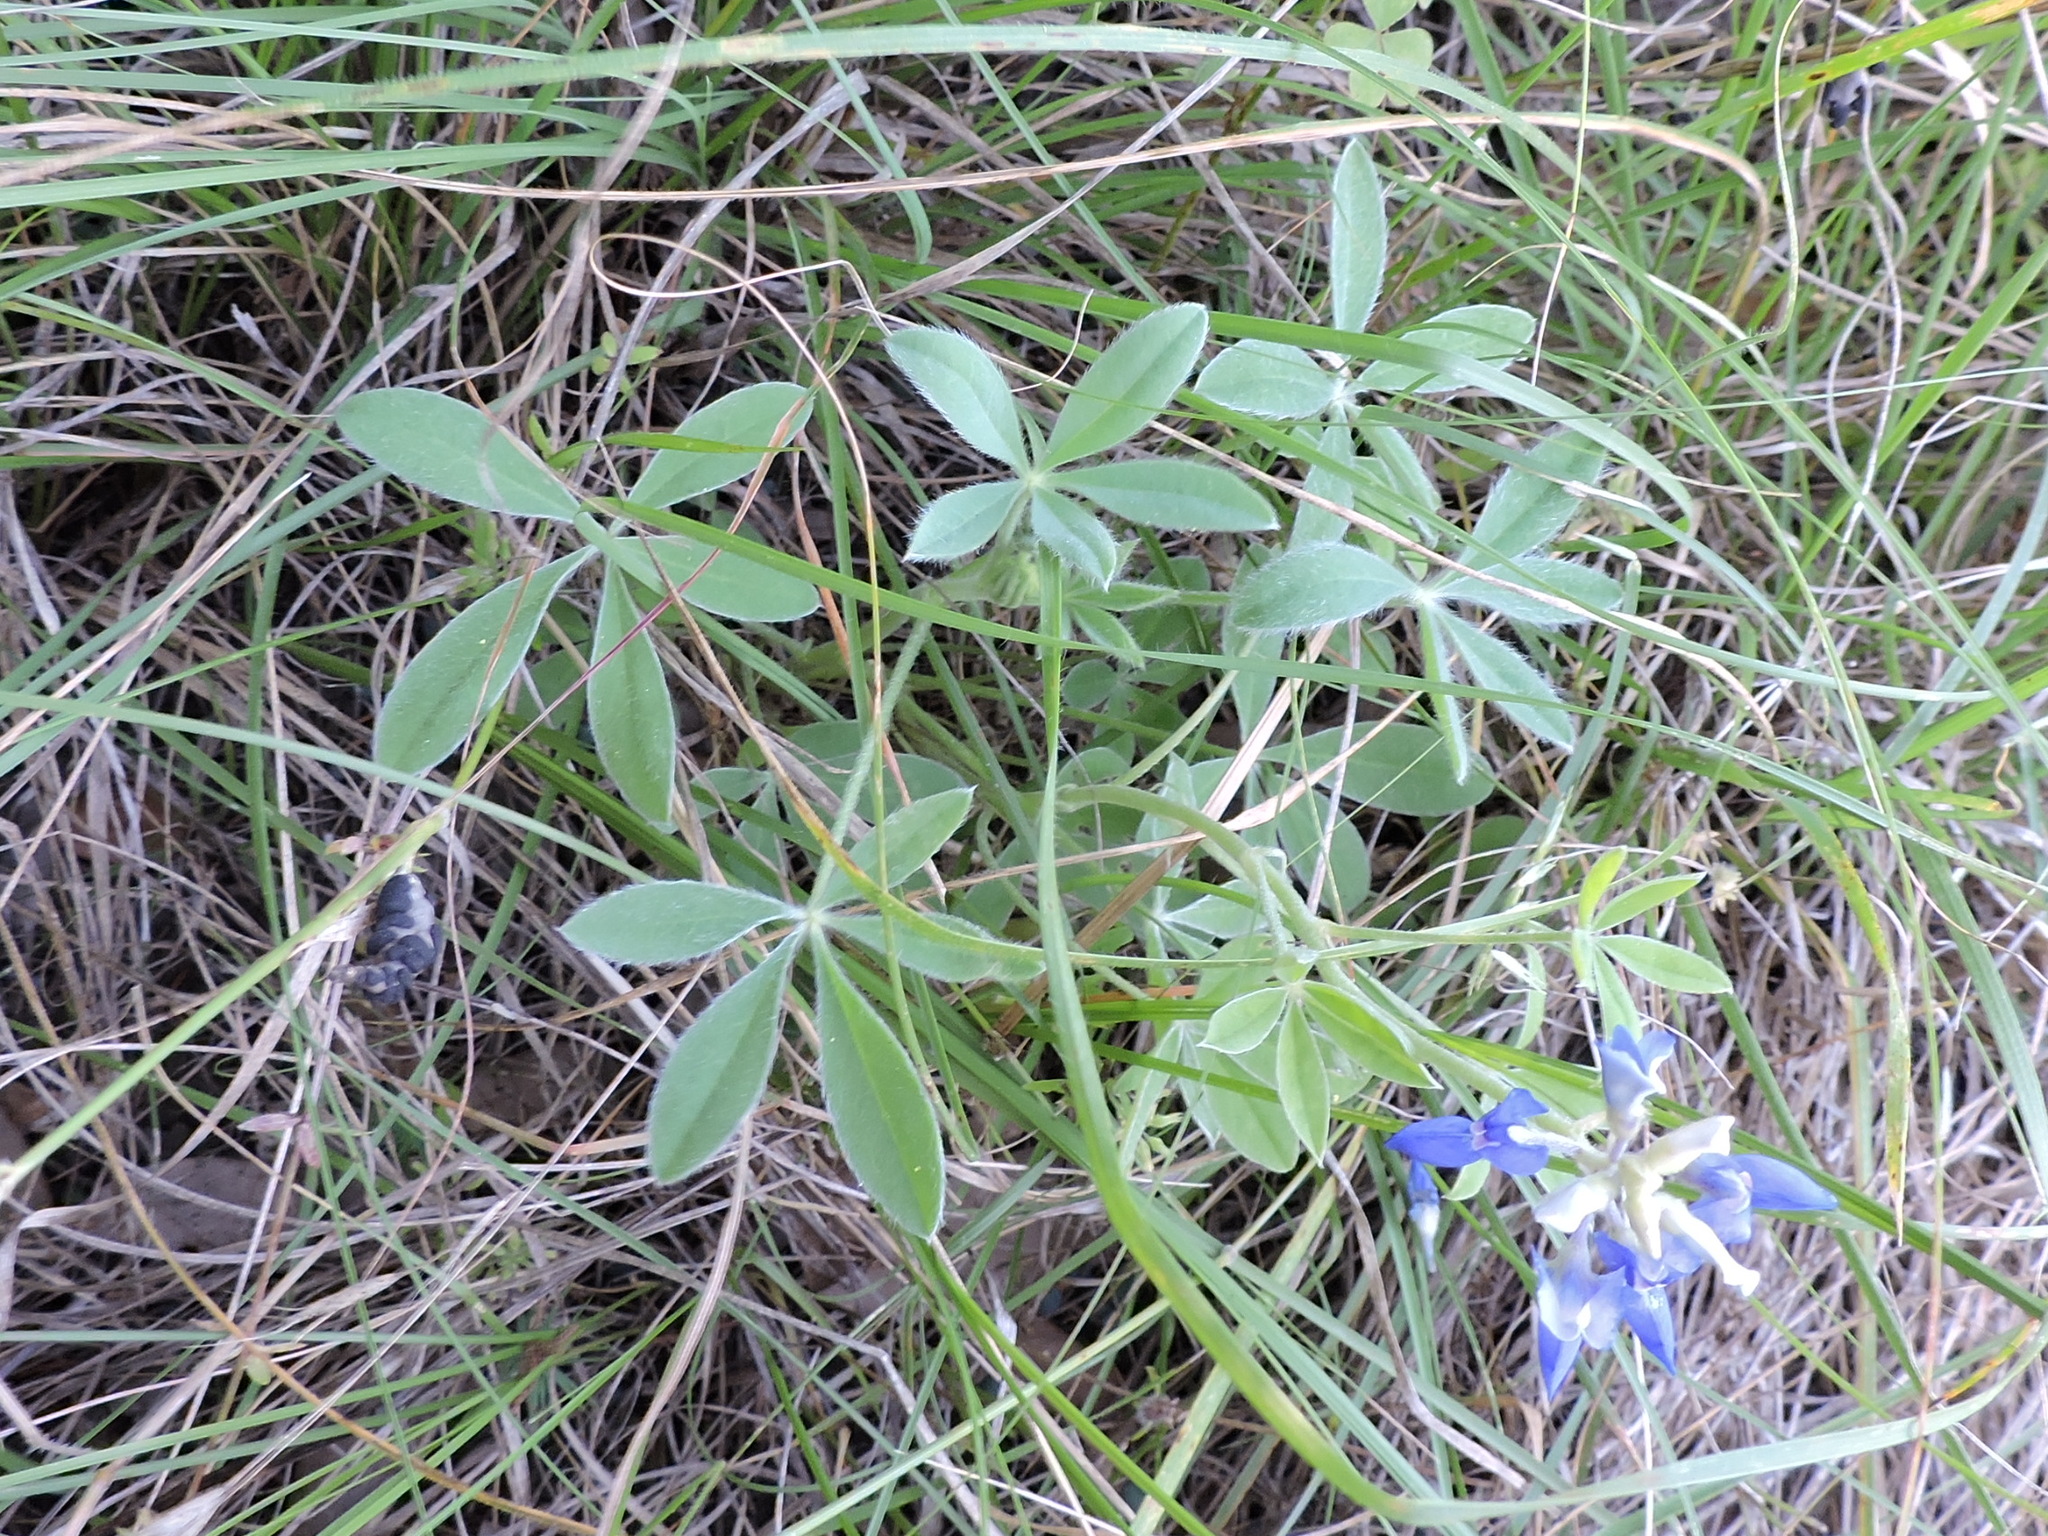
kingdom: Plantae
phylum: Tracheophyta
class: Magnoliopsida
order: Fabales
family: Fabaceae
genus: Lupinus
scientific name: Lupinus texensis
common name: Texas bluebonnet
